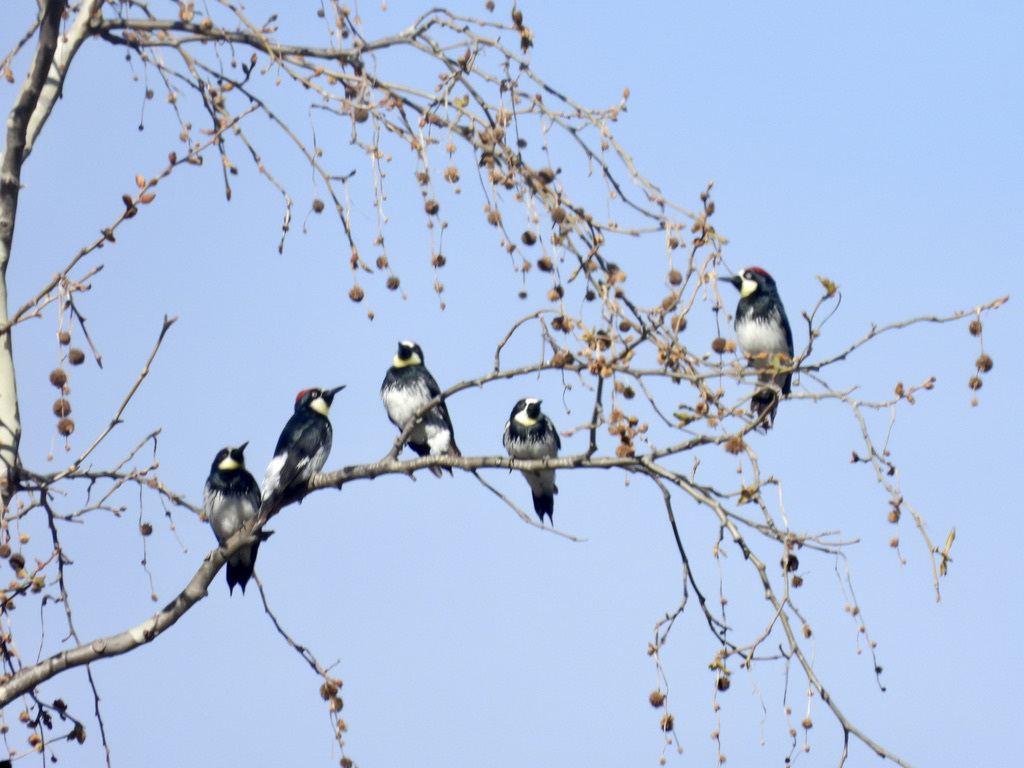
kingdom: Animalia
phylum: Chordata
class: Aves
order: Piciformes
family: Picidae
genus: Melanerpes
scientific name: Melanerpes formicivorus
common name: Acorn woodpecker
